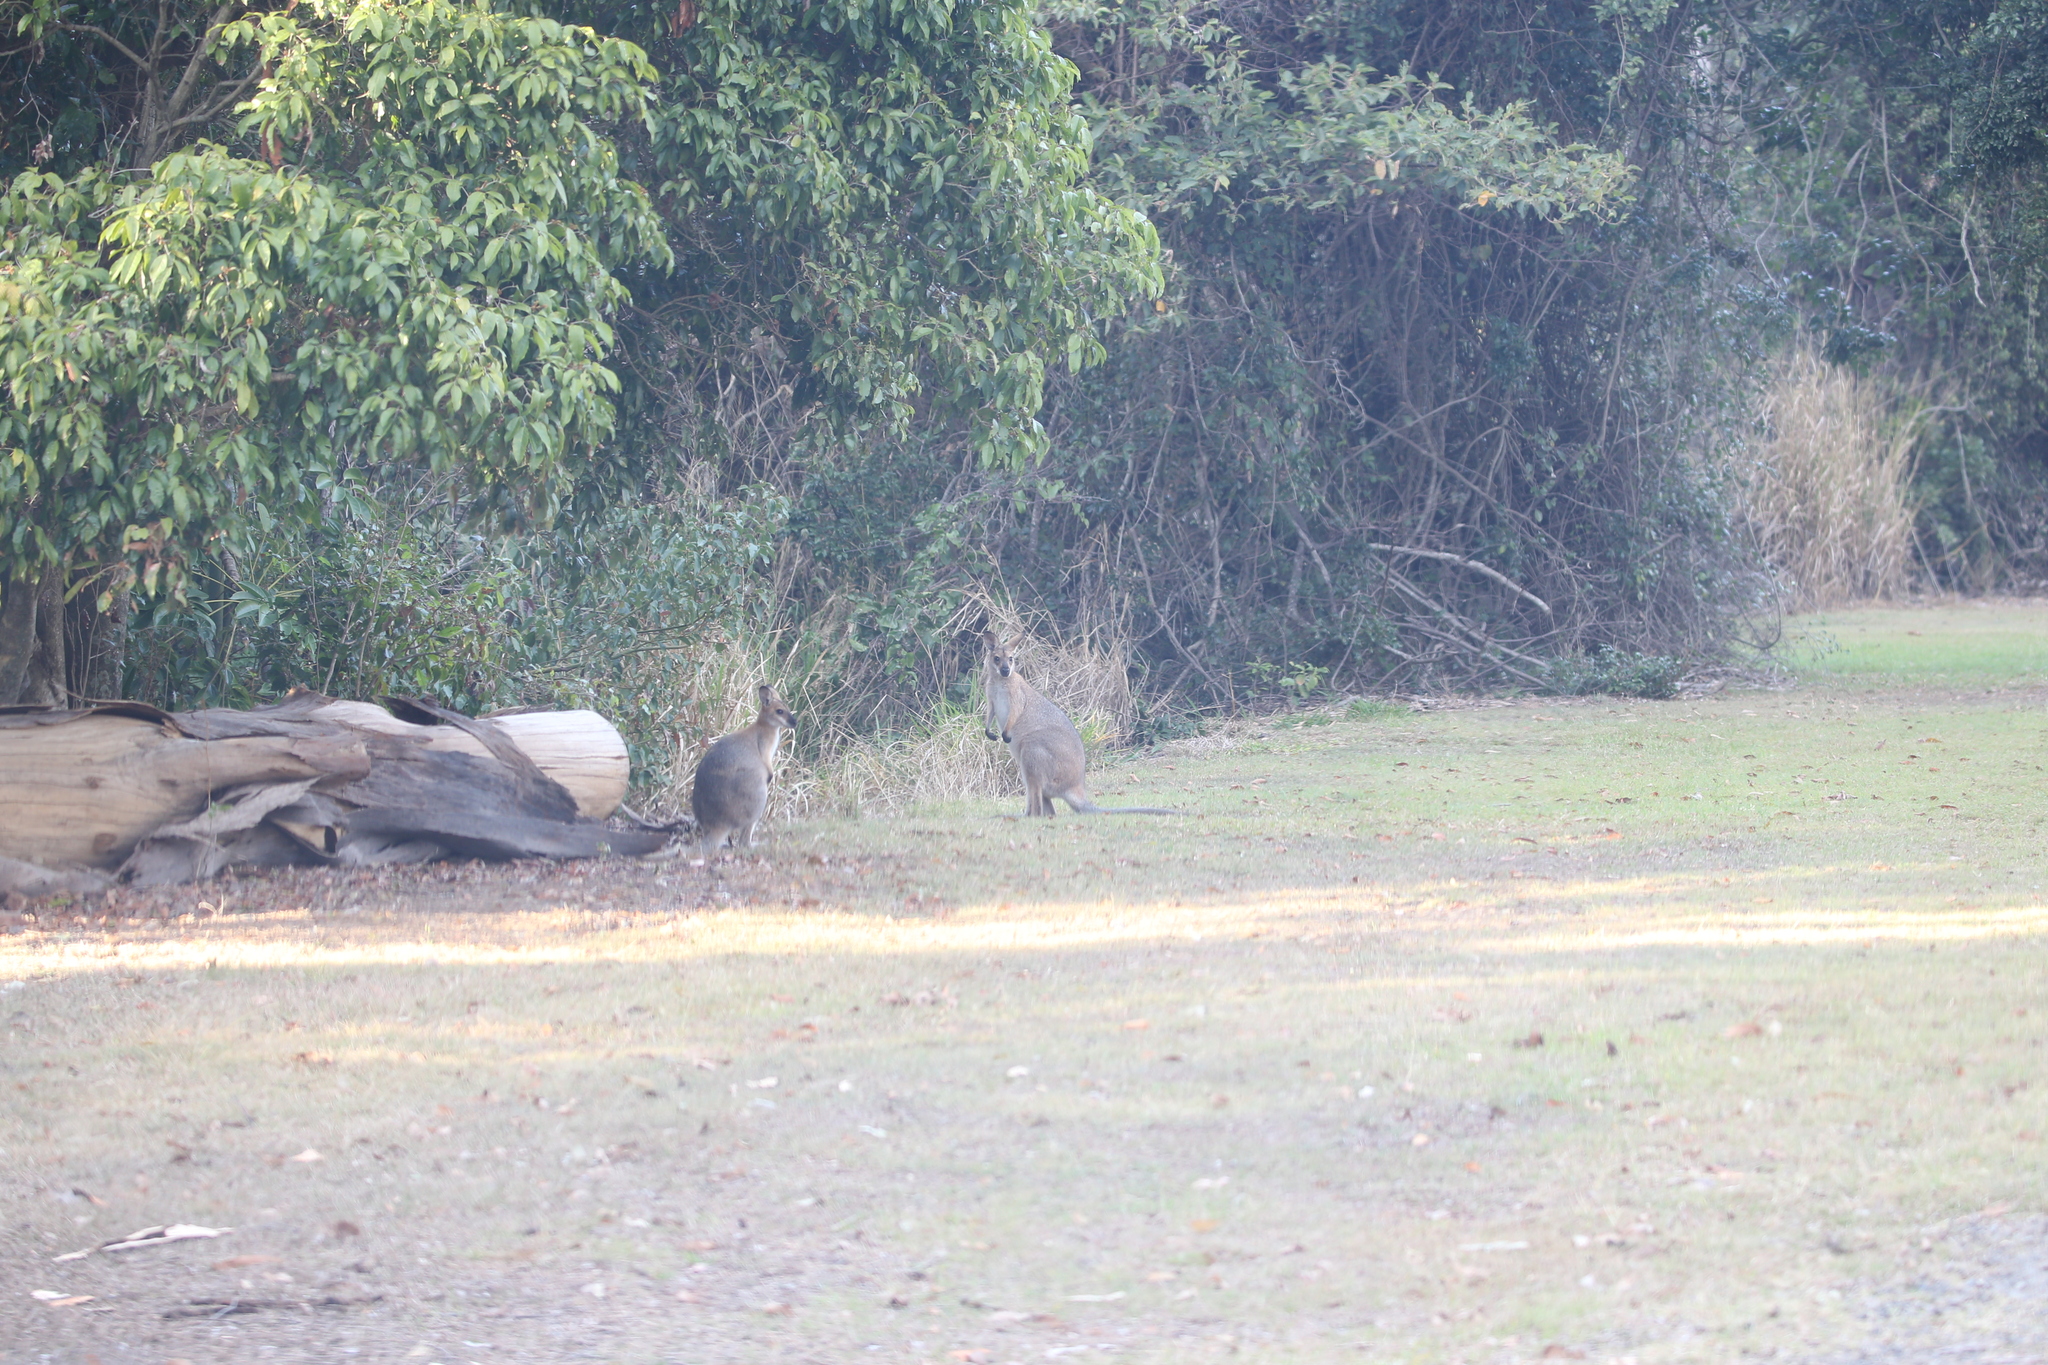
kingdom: Animalia
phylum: Chordata
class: Mammalia
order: Diprotodontia
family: Macropodidae
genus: Notamacropus
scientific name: Notamacropus rufogriseus
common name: Red-necked wallaby
